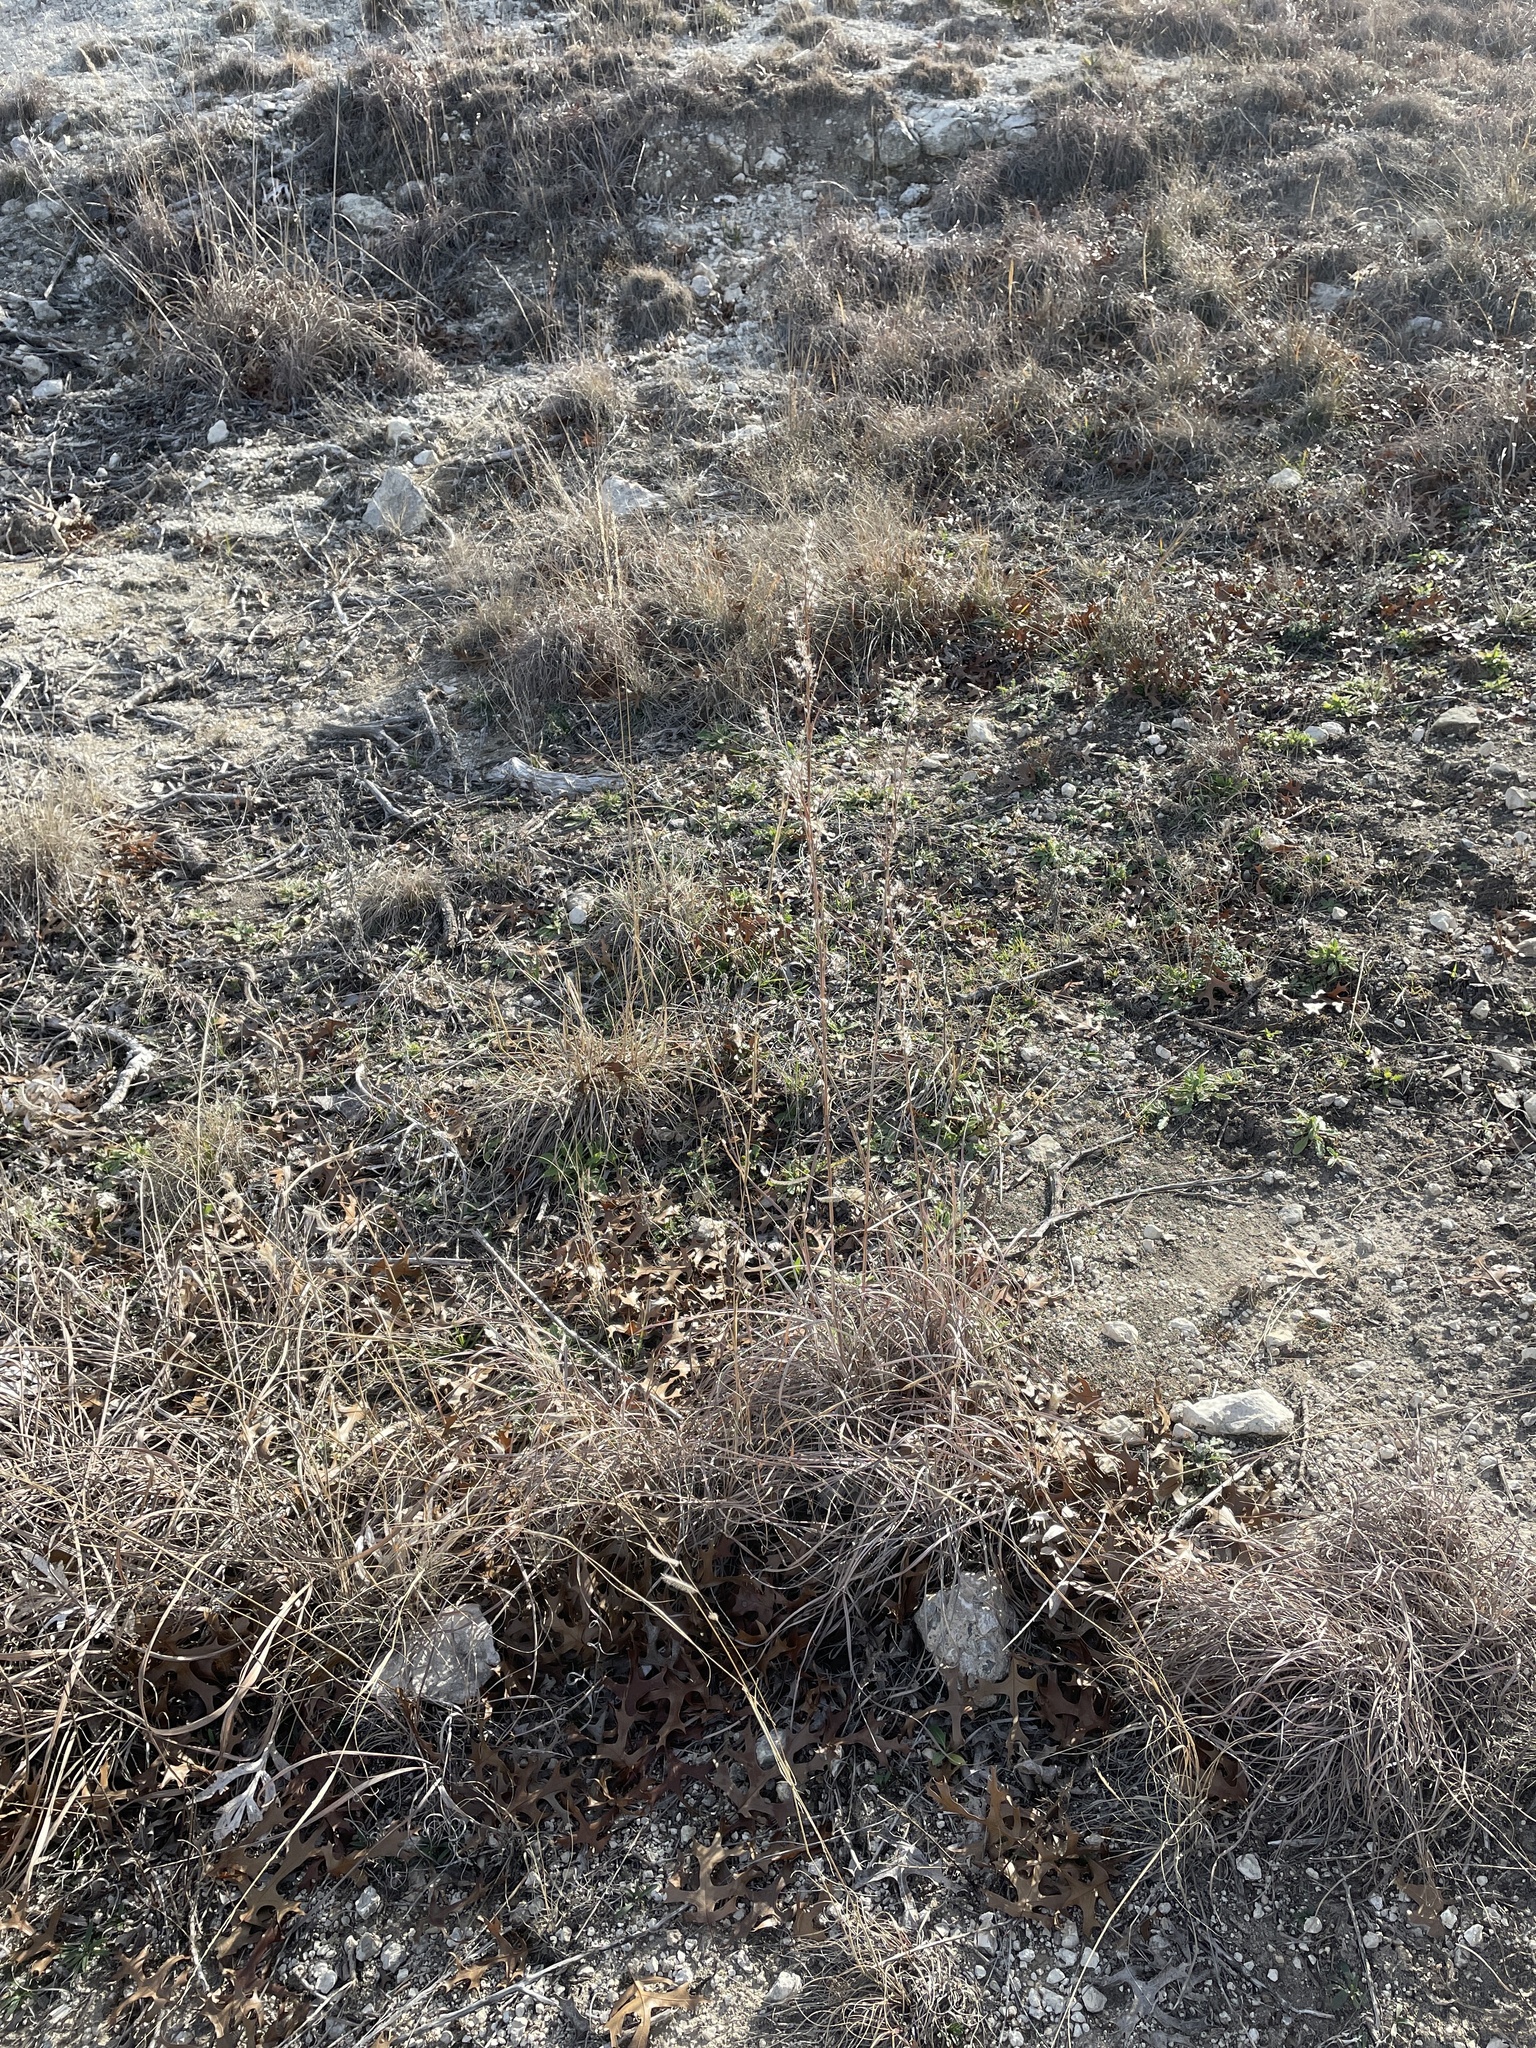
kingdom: Plantae
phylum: Tracheophyta
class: Liliopsida
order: Poales
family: Poaceae
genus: Schizachyrium
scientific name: Schizachyrium scoparium
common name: Little bluestem
